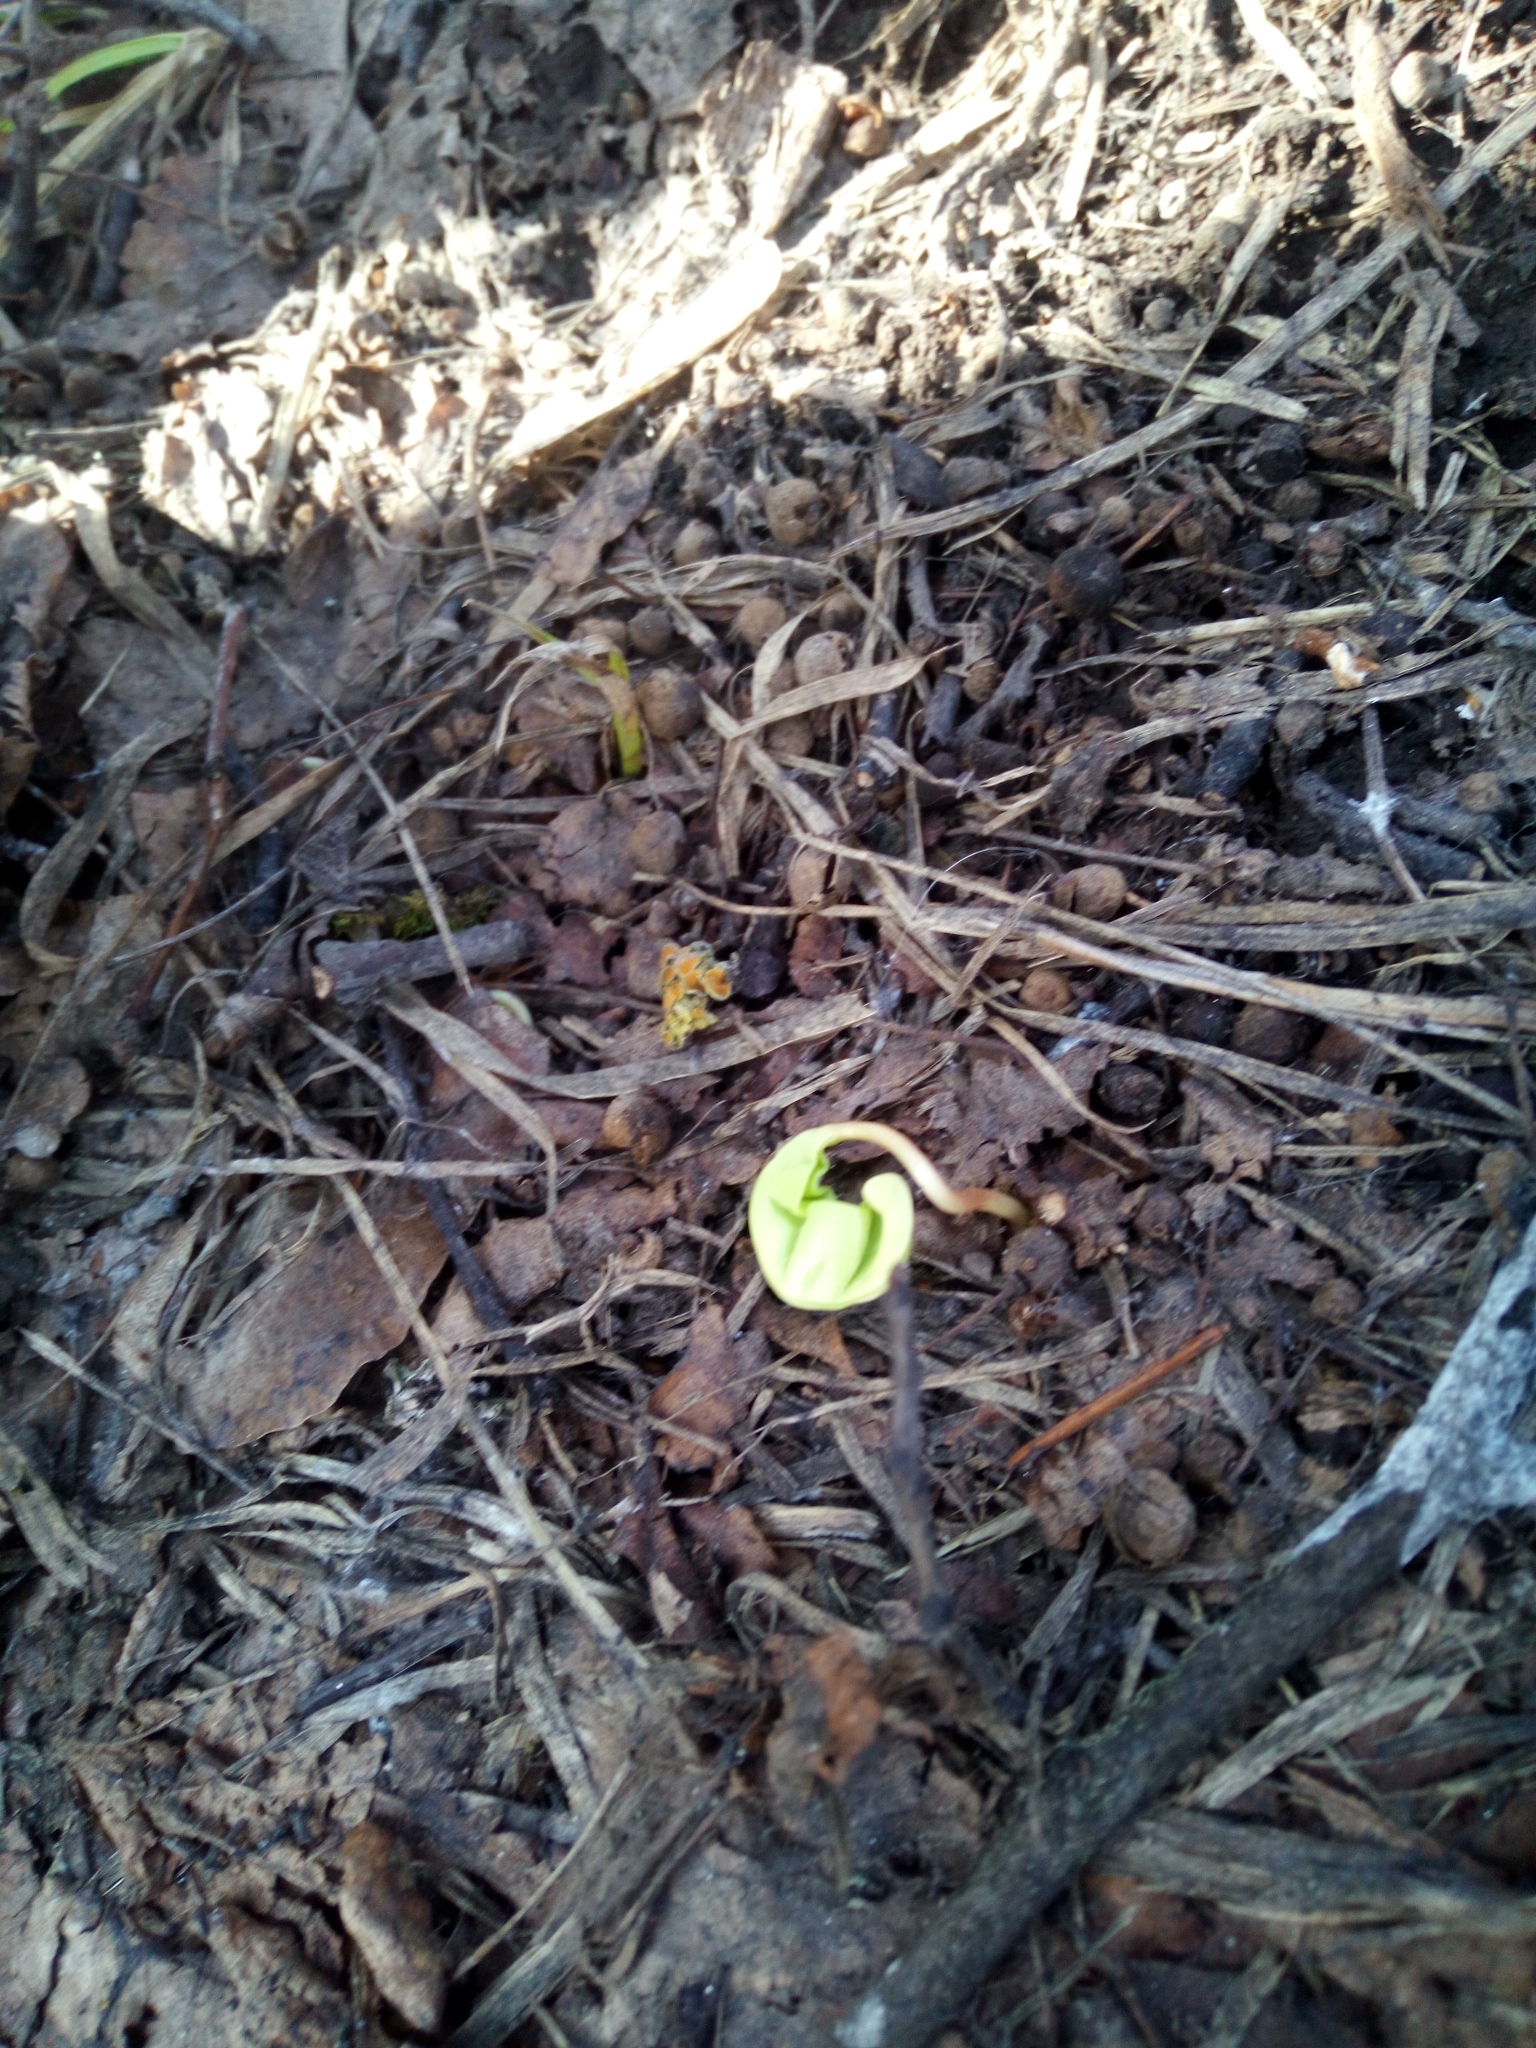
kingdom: Plantae
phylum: Tracheophyta
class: Magnoliopsida
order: Sapindales
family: Sapindaceae
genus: Acer
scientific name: Acer platanoides
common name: Norway maple
